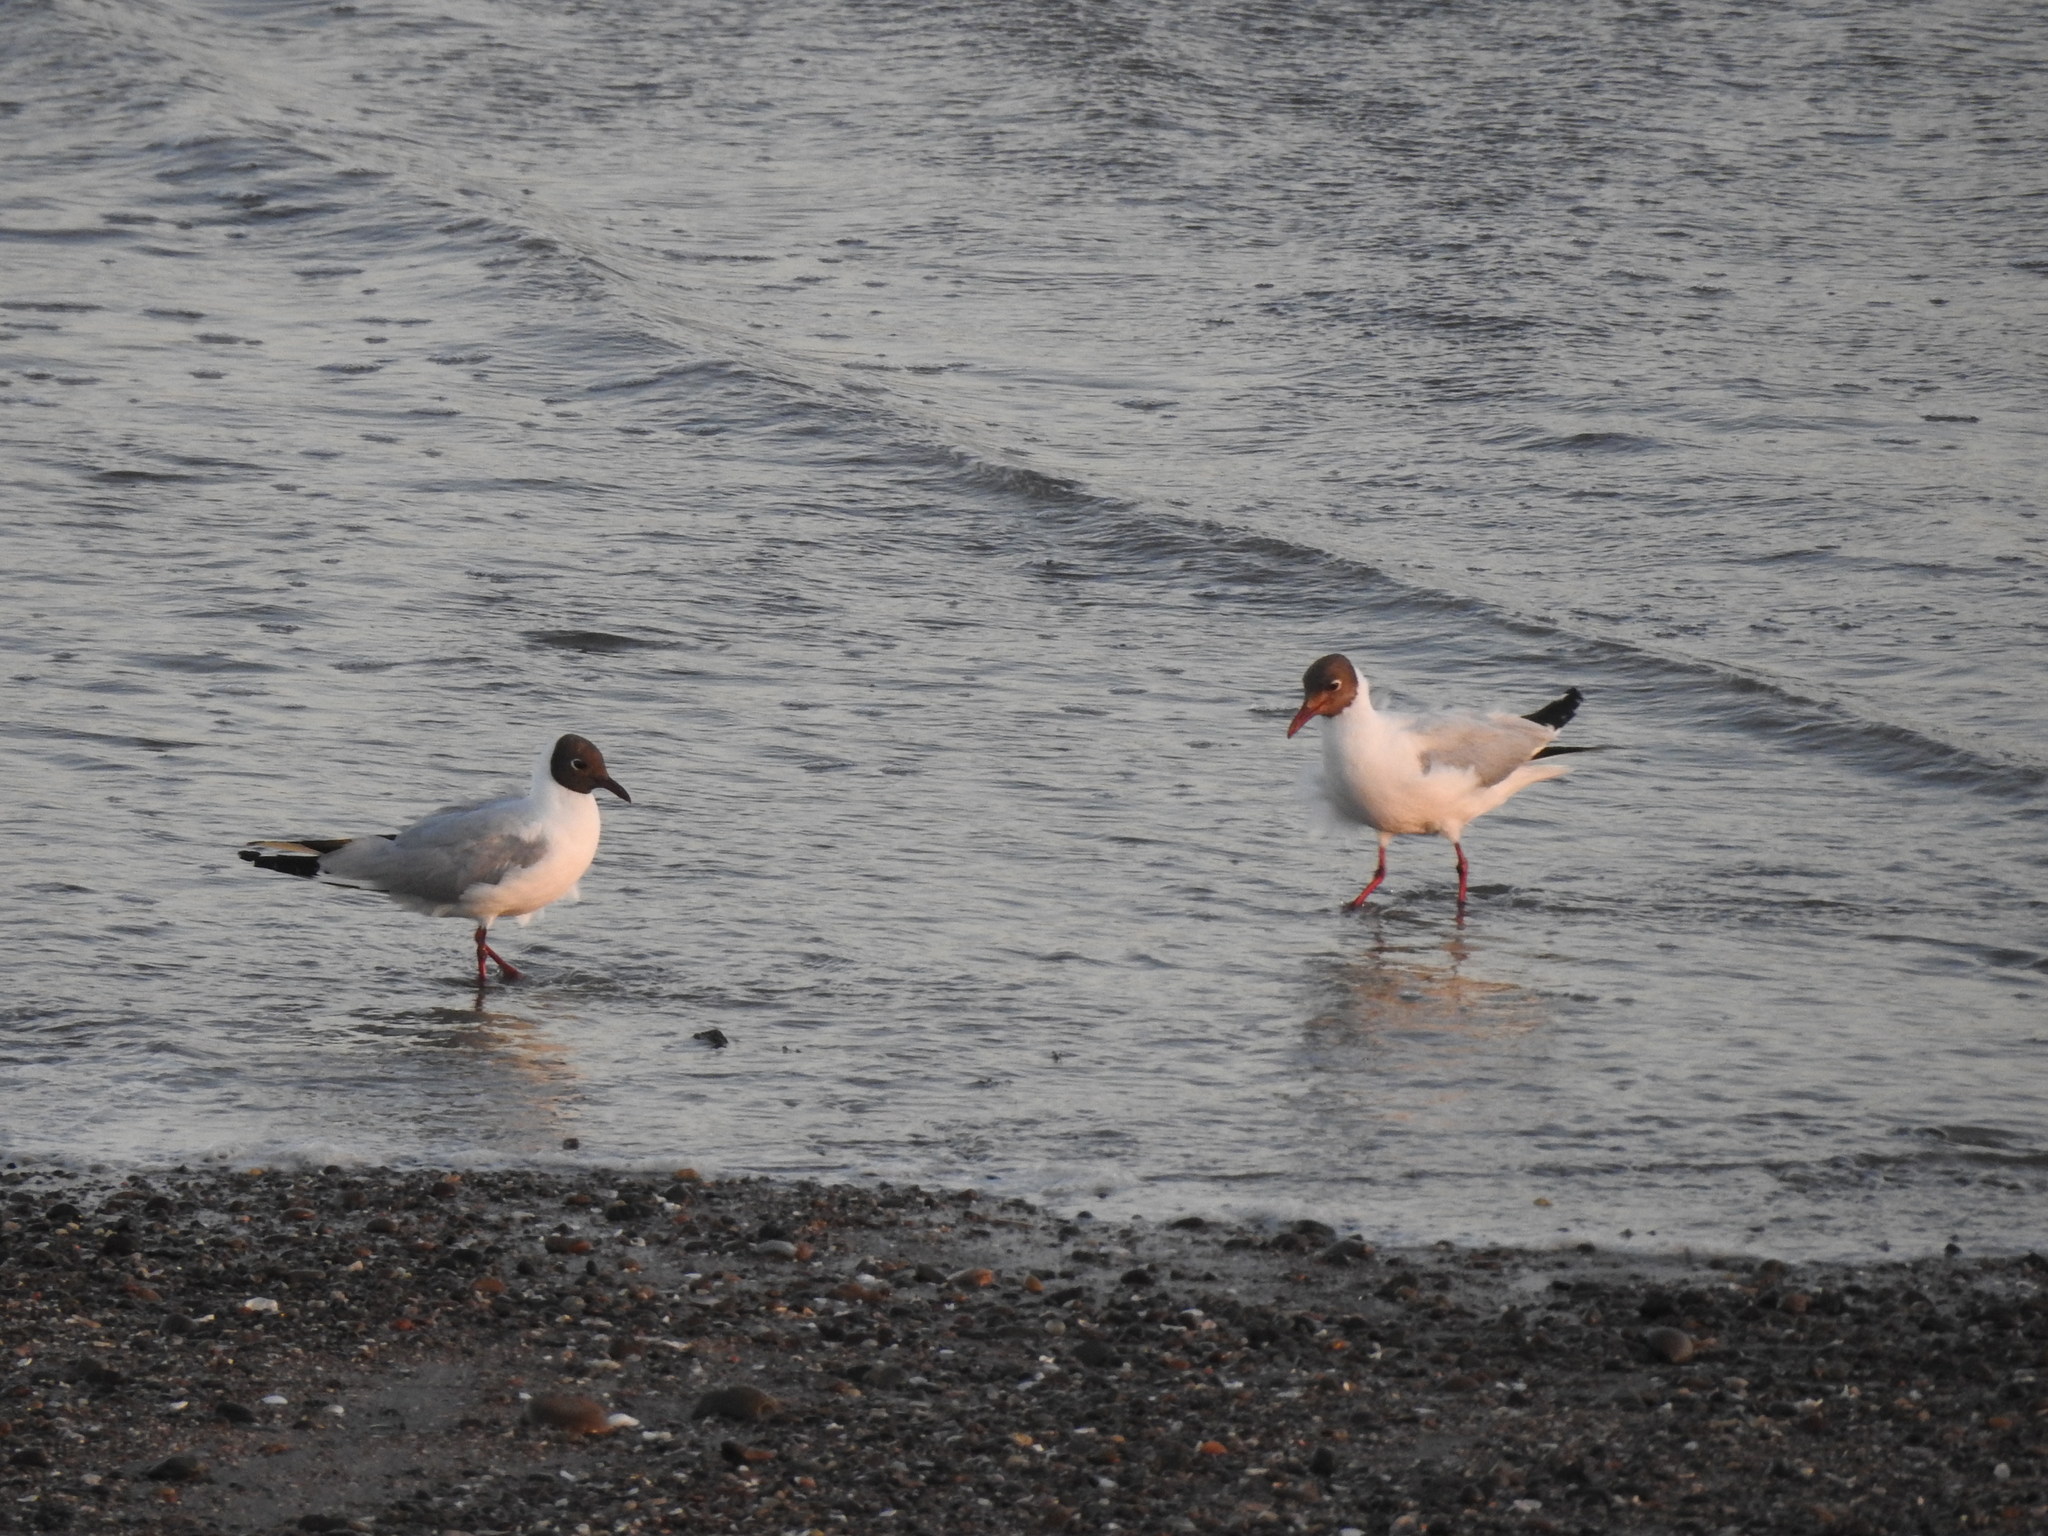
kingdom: Animalia
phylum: Chordata
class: Aves
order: Charadriiformes
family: Laridae
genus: Chroicocephalus
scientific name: Chroicocephalus maculipennis
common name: Brown-hooded gull
